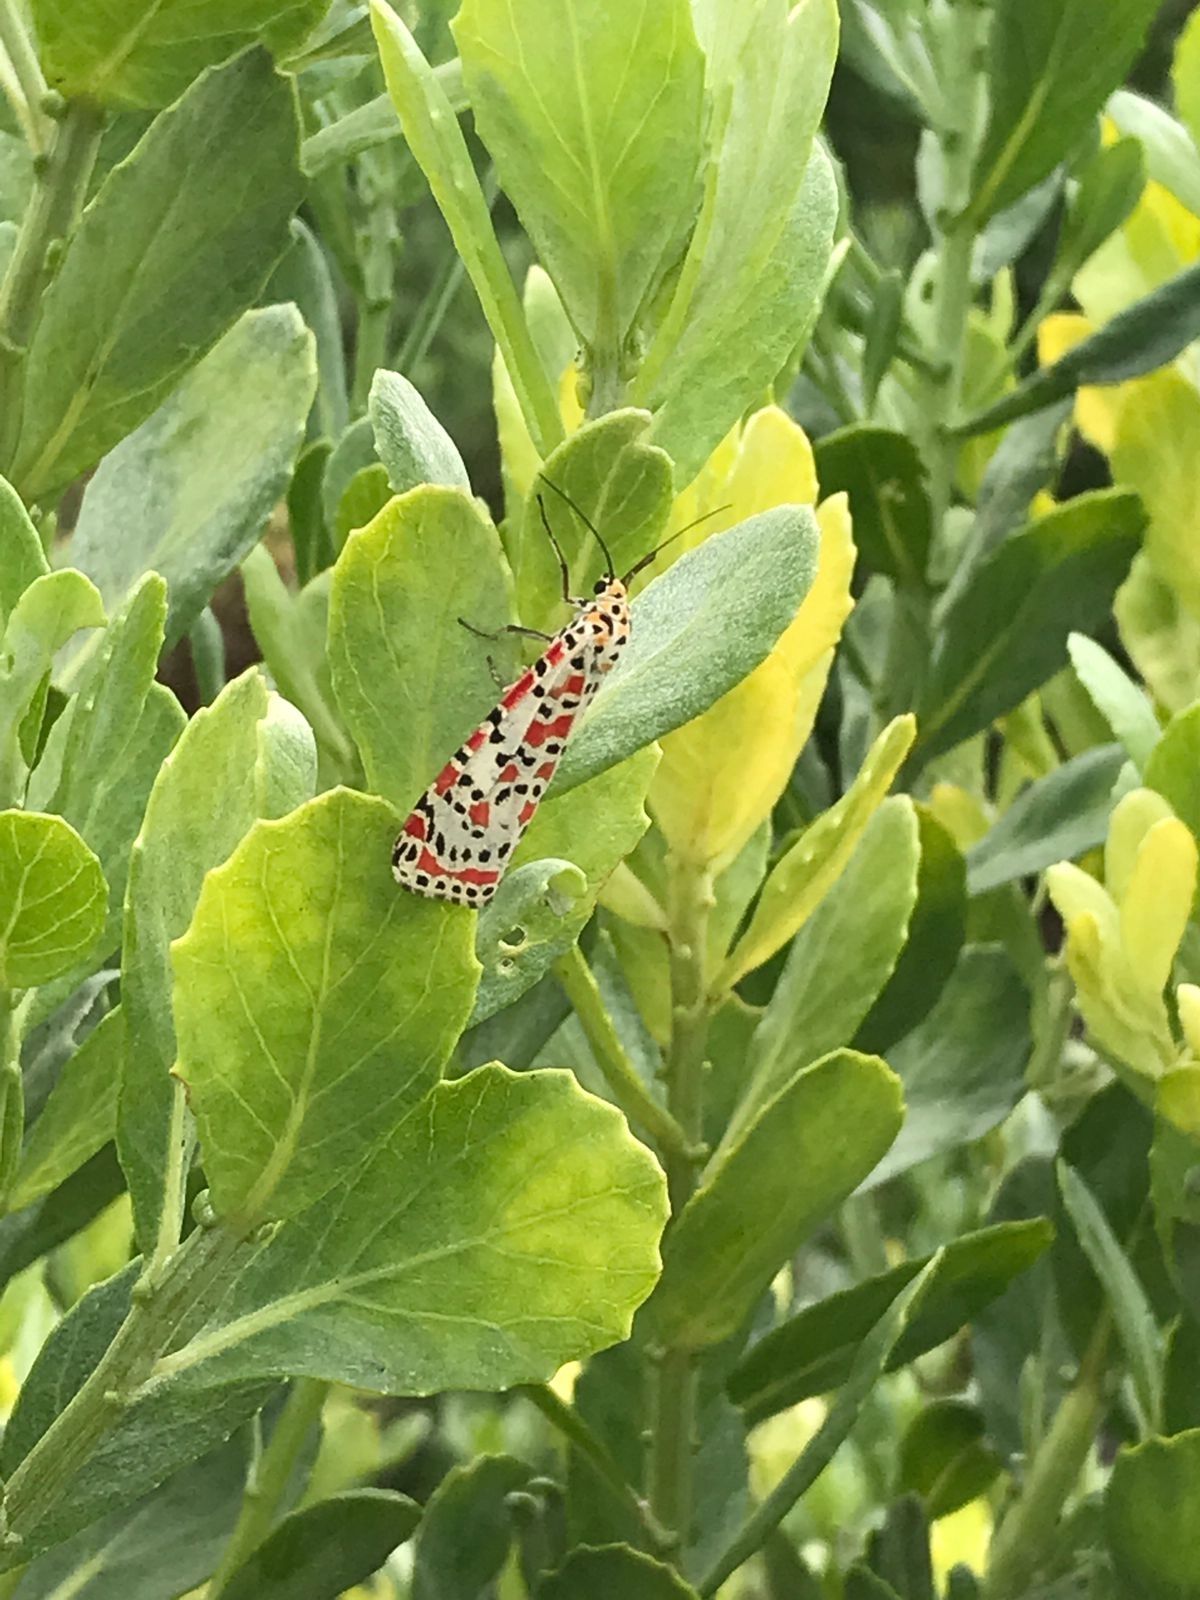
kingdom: Animalia
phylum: Arthropoda
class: Insecta
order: Lepidoptera
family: Erebidae
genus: Utetheisa
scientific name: Utetheisa pulchella
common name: Crimson speckled
